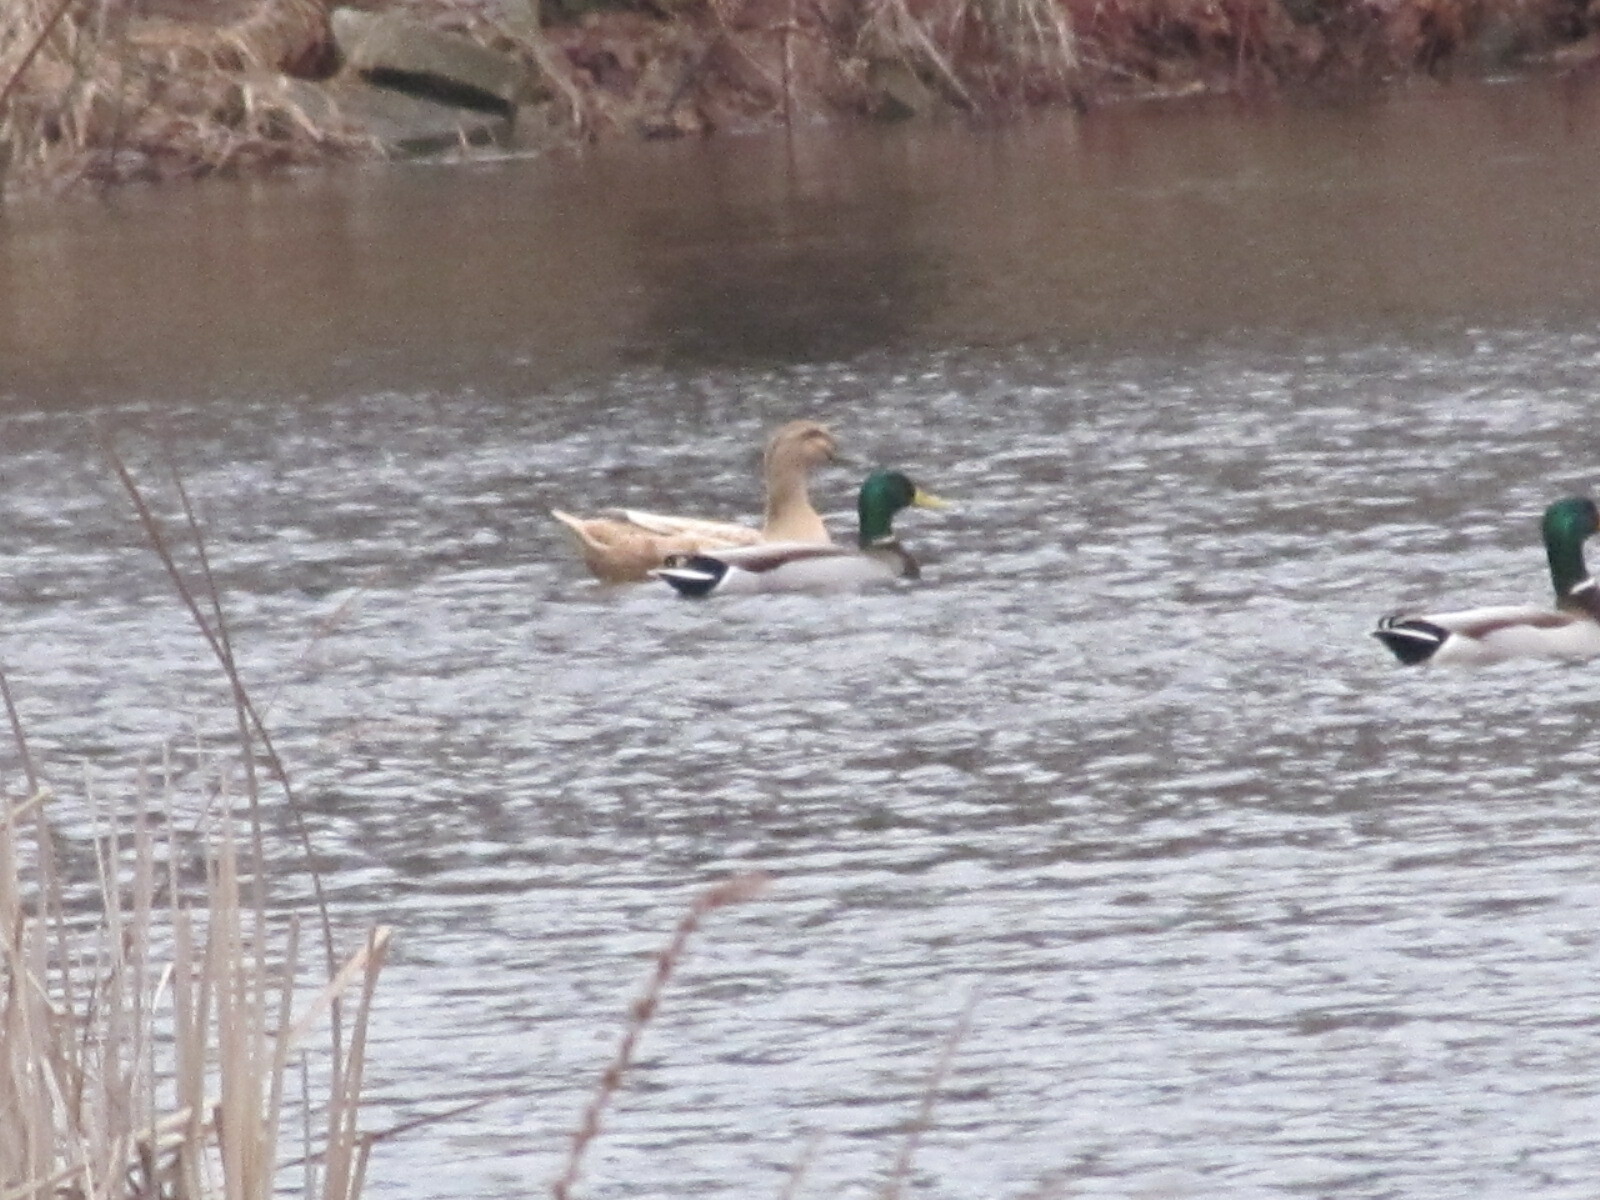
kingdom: Animalia
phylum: Chordata
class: Aves
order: Anseriformes
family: Anatidae
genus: Anas
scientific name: Anas platyrhynchos
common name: Mallard
